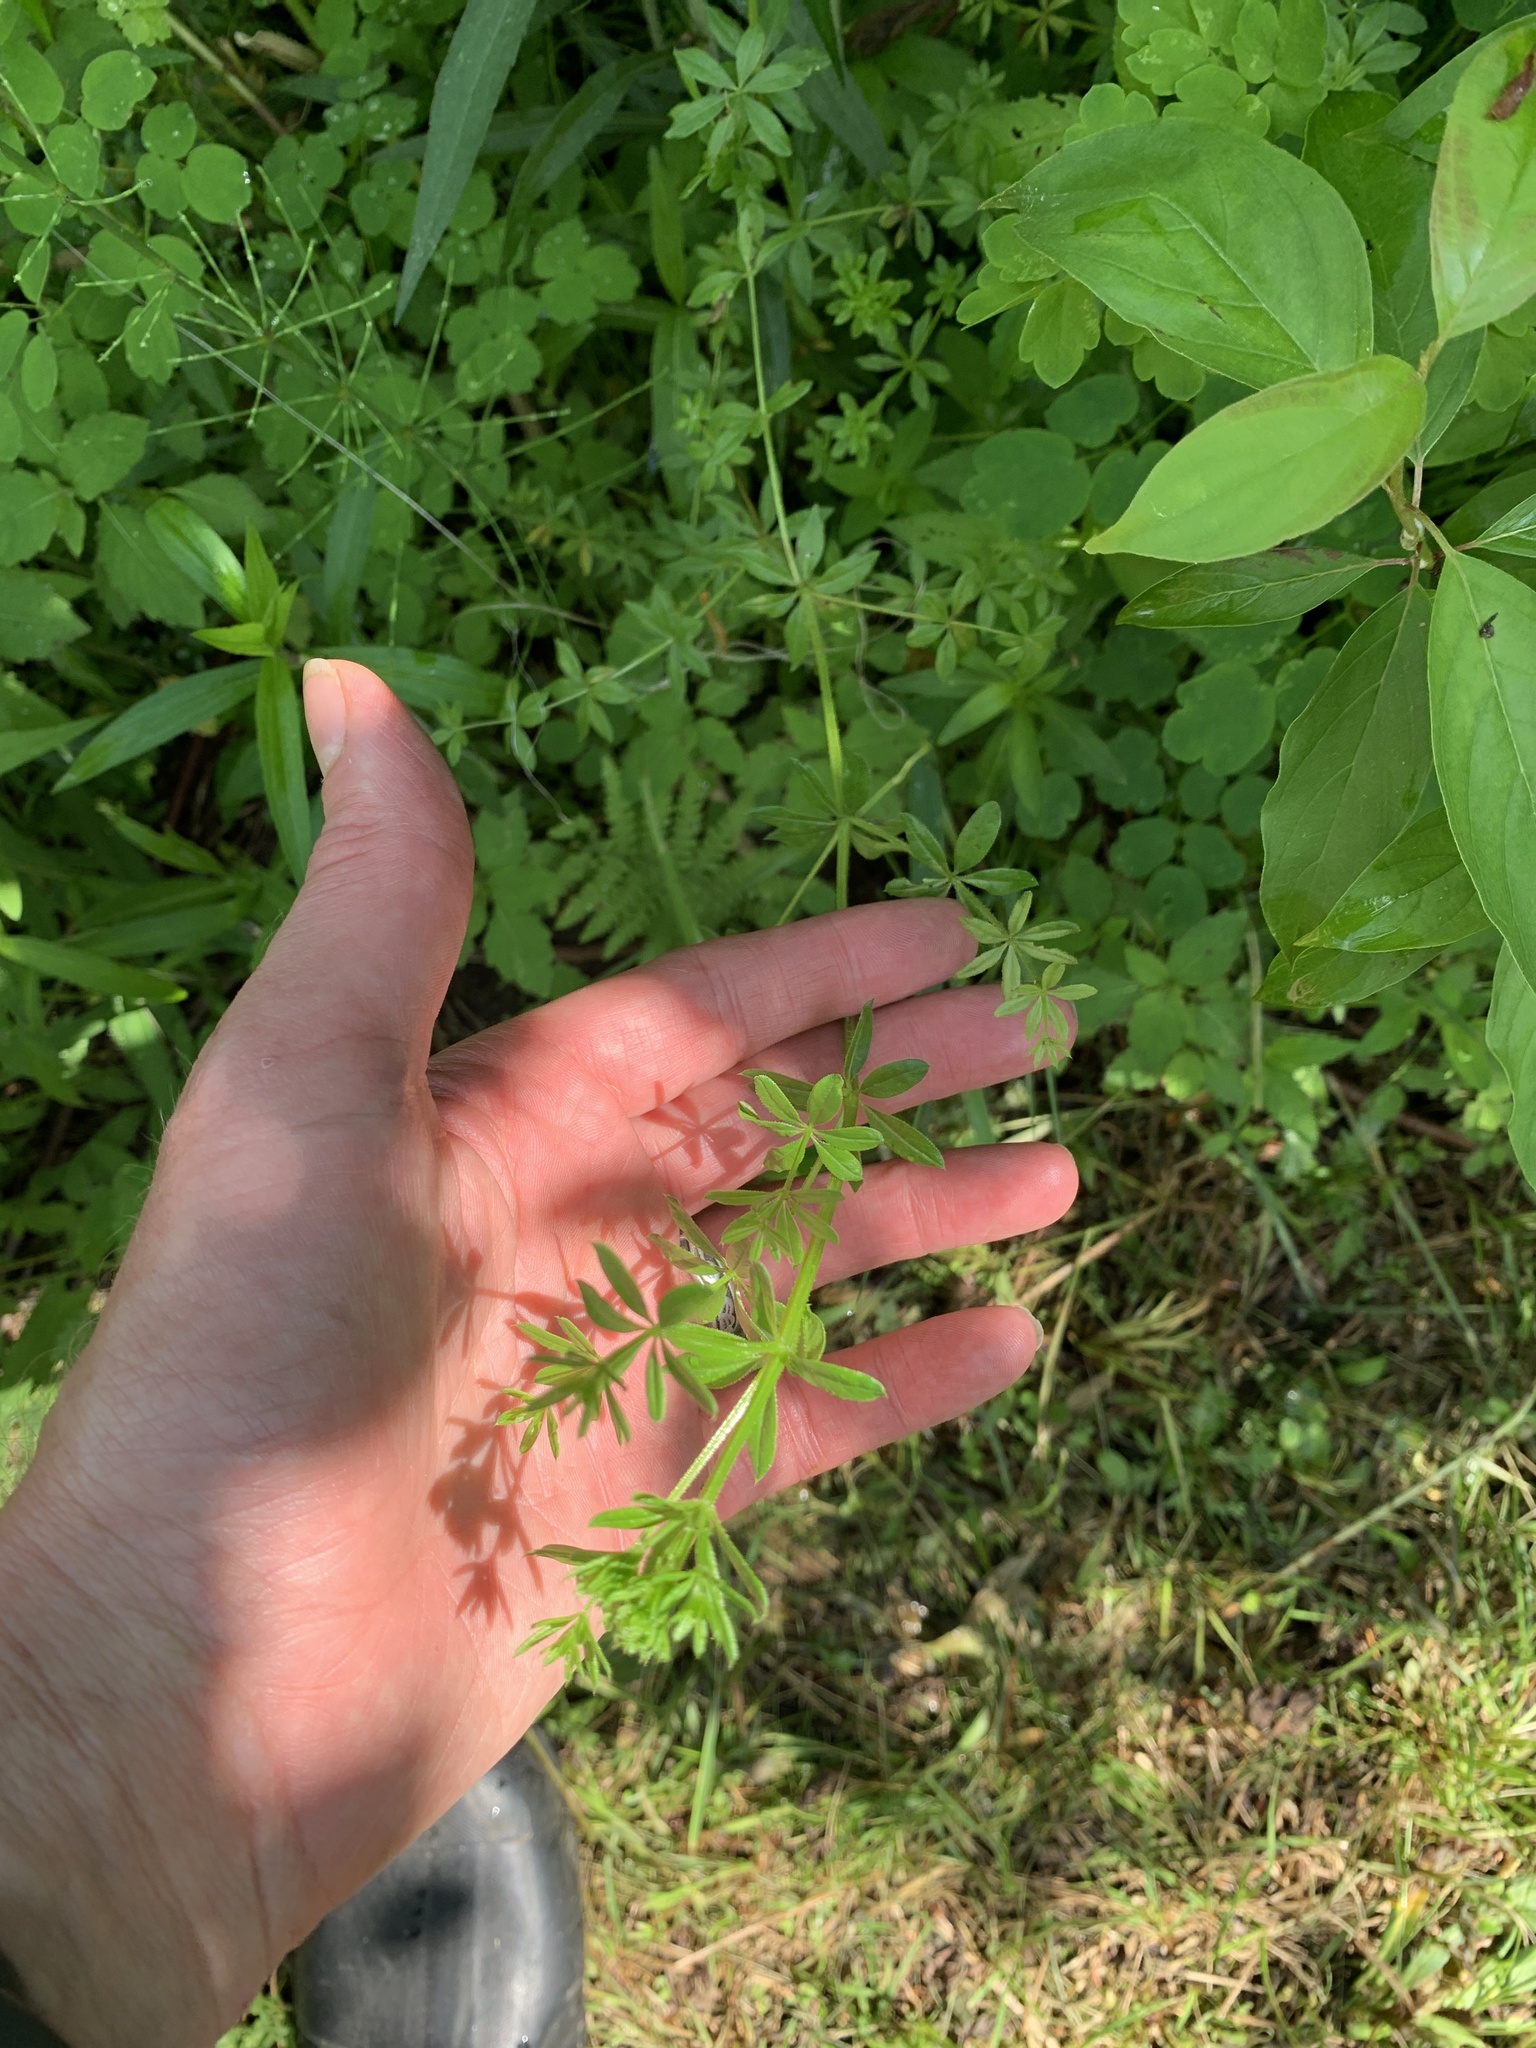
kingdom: Plantae
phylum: Tracheophyta
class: Magnoliopsida
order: Gentianales
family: Rubiaceae
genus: Galium
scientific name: Galium asprellum
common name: Rough bedstraw
